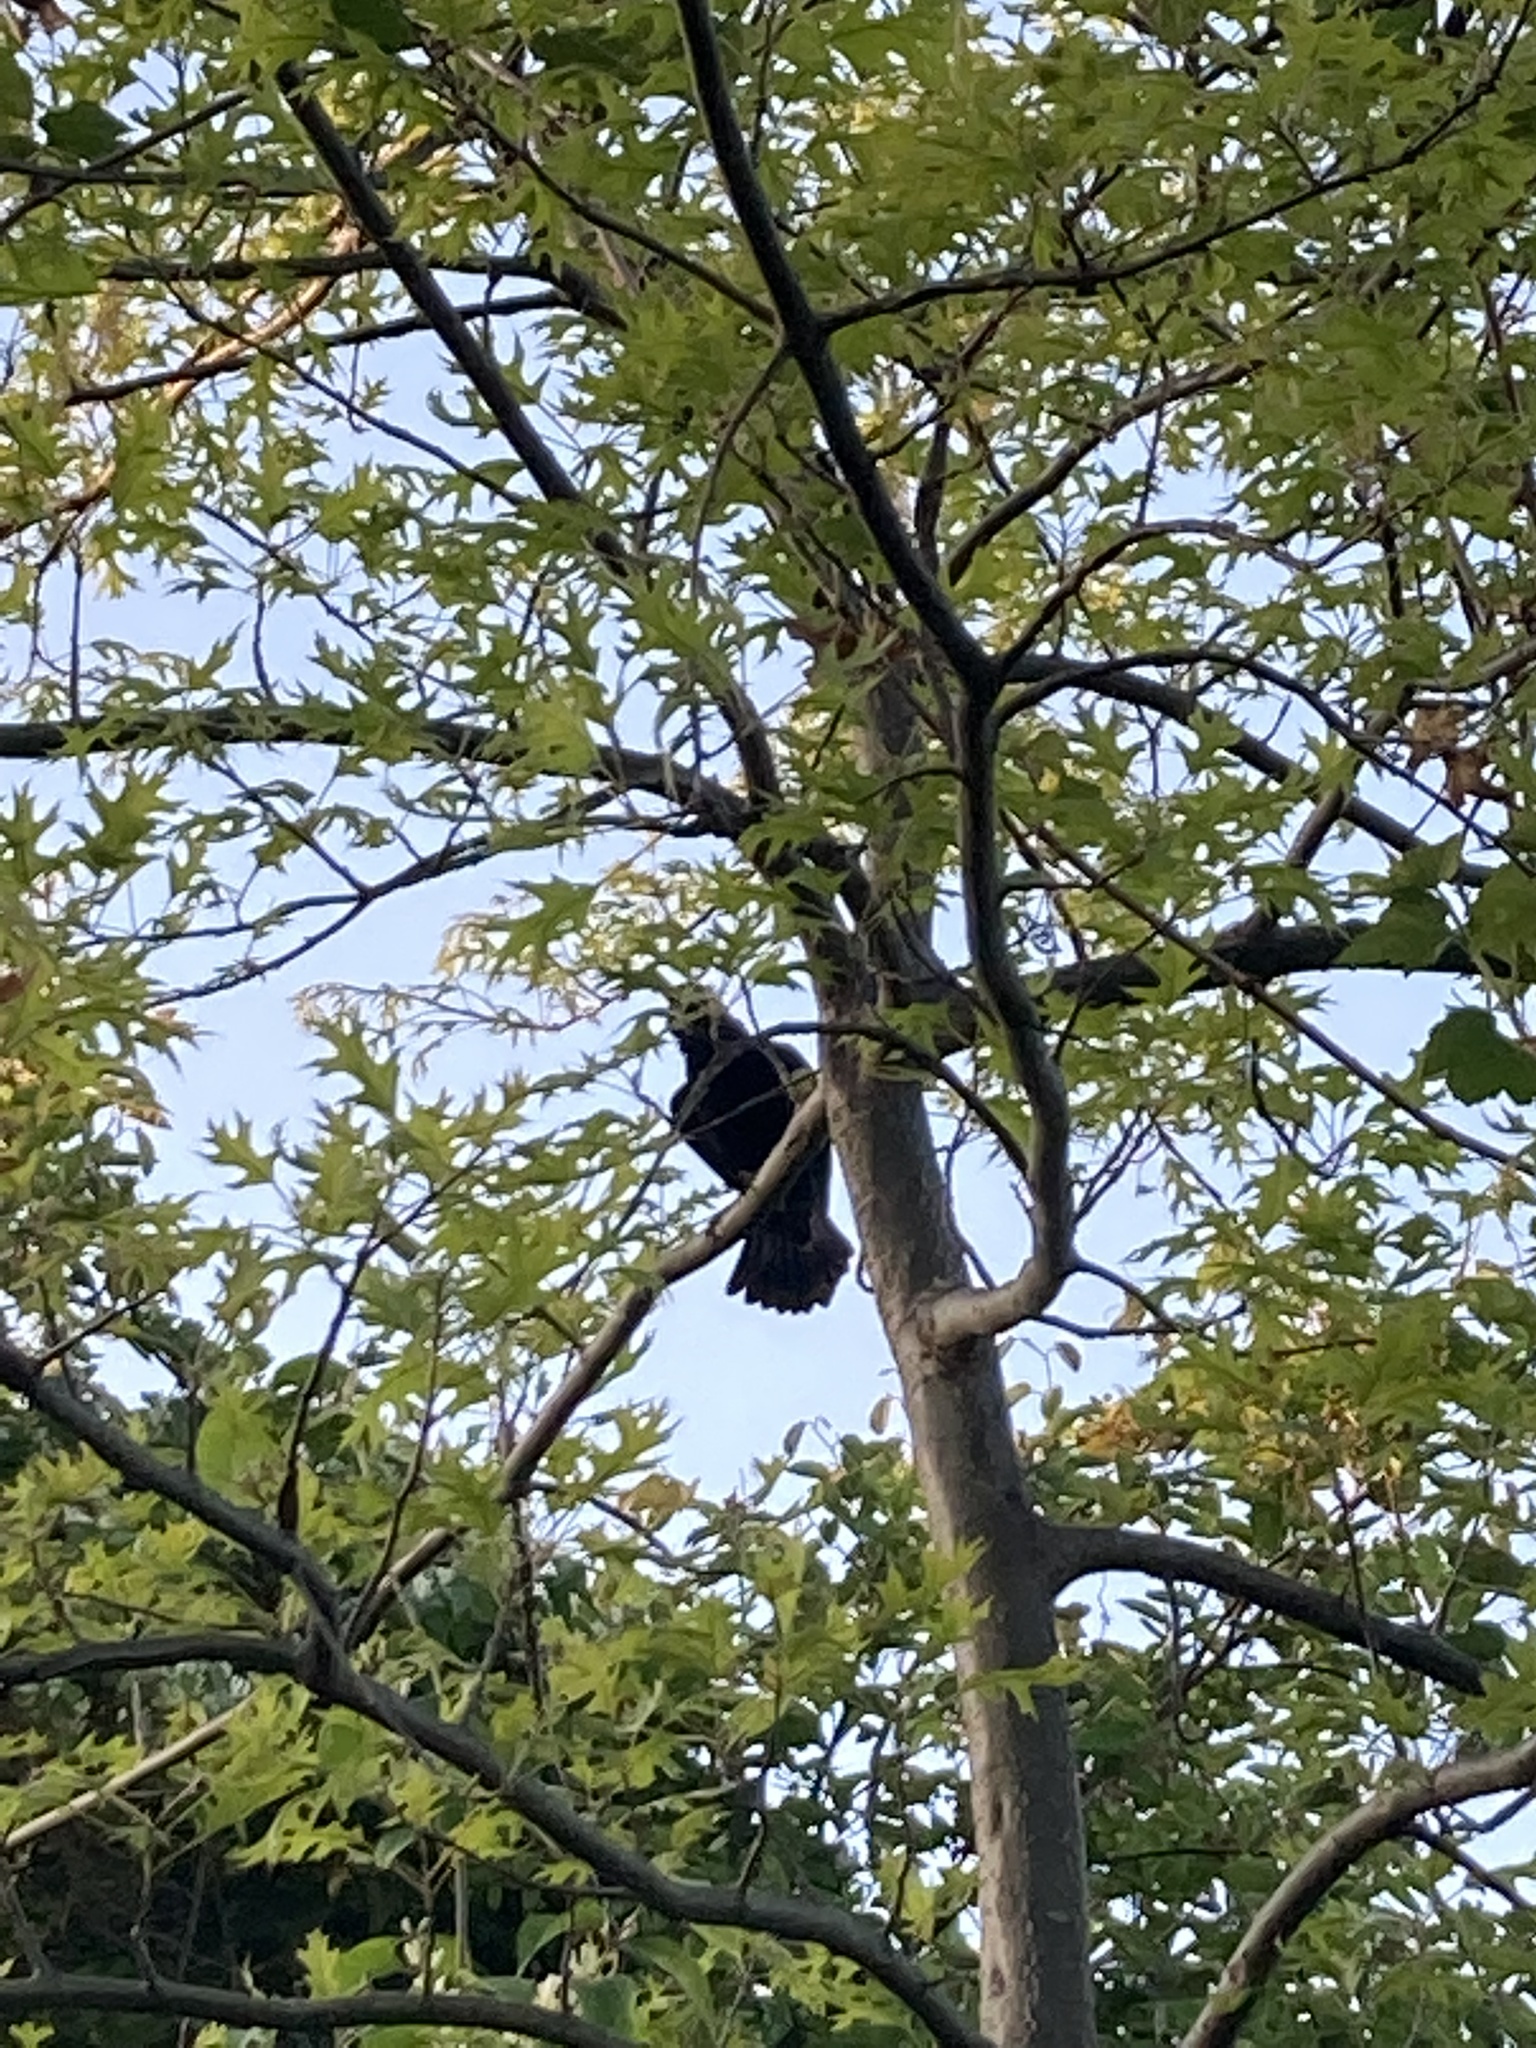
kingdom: Animalia
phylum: Chordata
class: Aves
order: Passeriformes
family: Icteridae
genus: Agelaius
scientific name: Agelaius phoeniceus
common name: Red-winged blackbird
